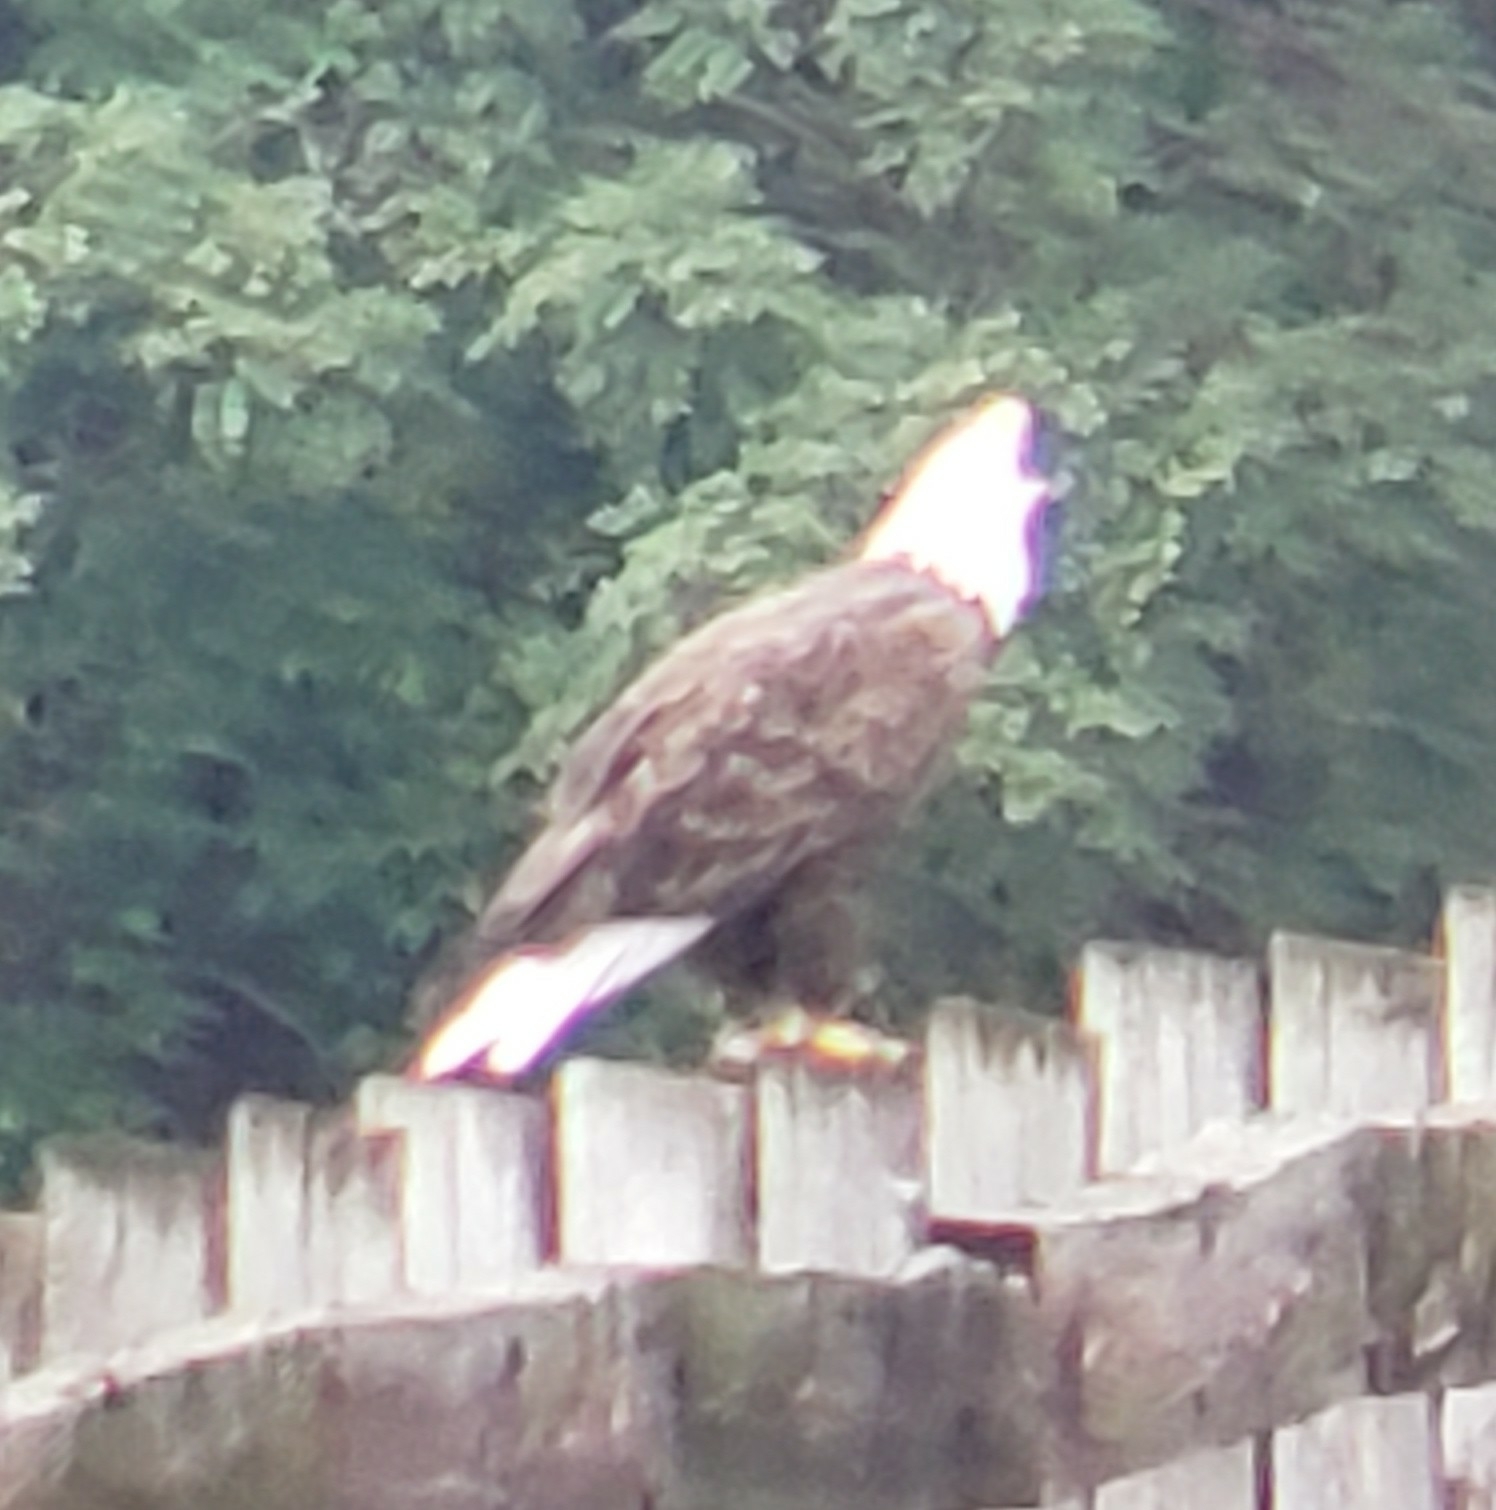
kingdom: Animalia
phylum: Chordata
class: Aves
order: Accipitriformes
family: Accipitridae
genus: Haliaeetus
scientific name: Haliaeetus leucocephalus
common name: Bald eagle
